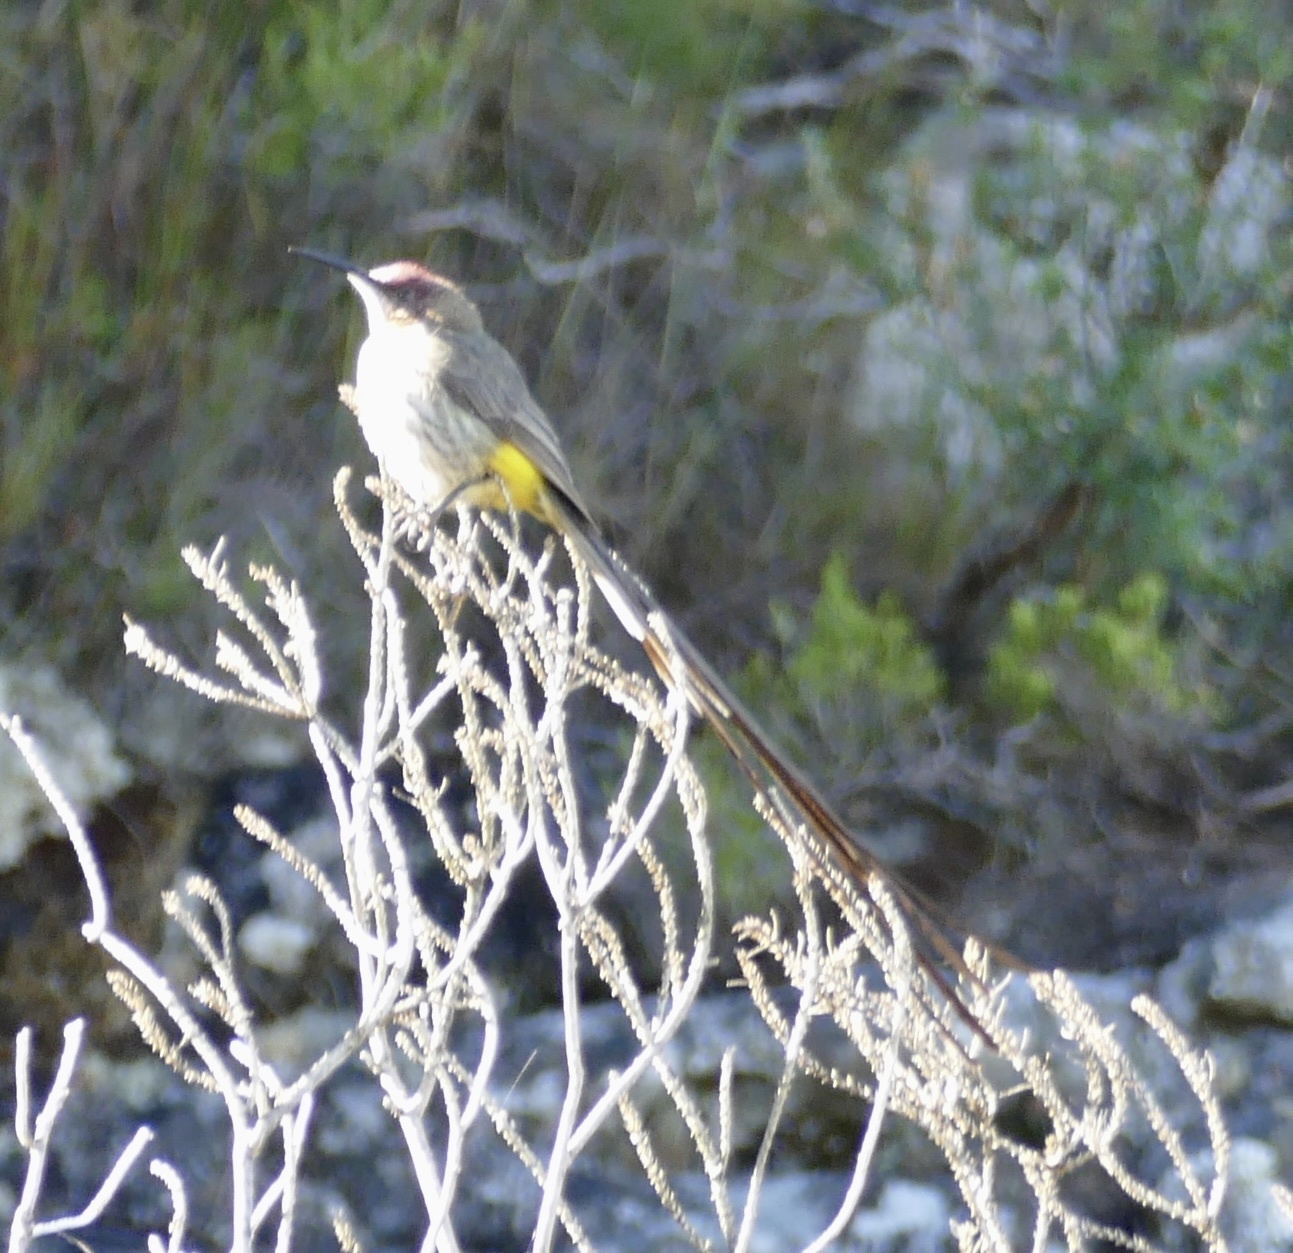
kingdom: Animalia
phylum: Chordata
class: Aves
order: Passeriformes
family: Promeropidae
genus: Promerops
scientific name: Promerops cafer
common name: Cape sugarbird
